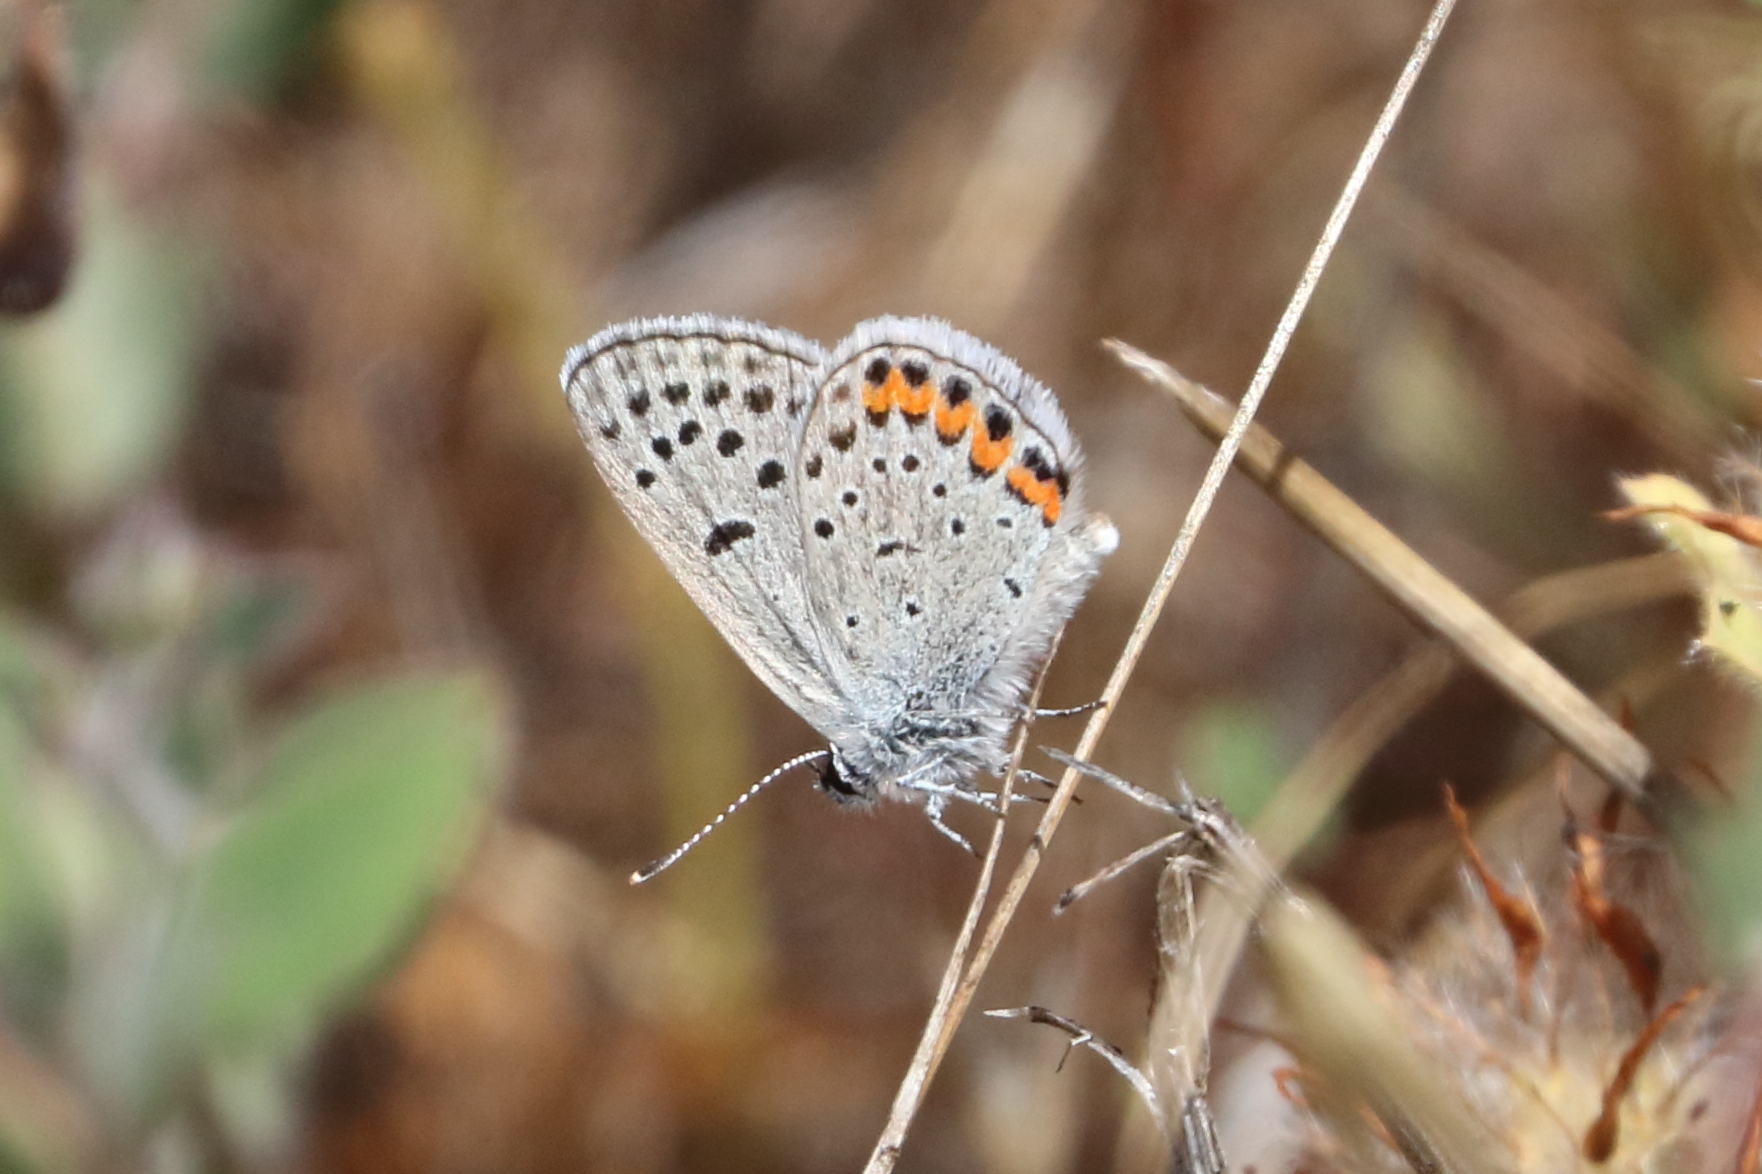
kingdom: Animalia
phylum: Arthropoda
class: Insecta
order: Lepidoptera
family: Lycaenidae
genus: Icaricia
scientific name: Icaricia acmon
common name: Acmon blue
